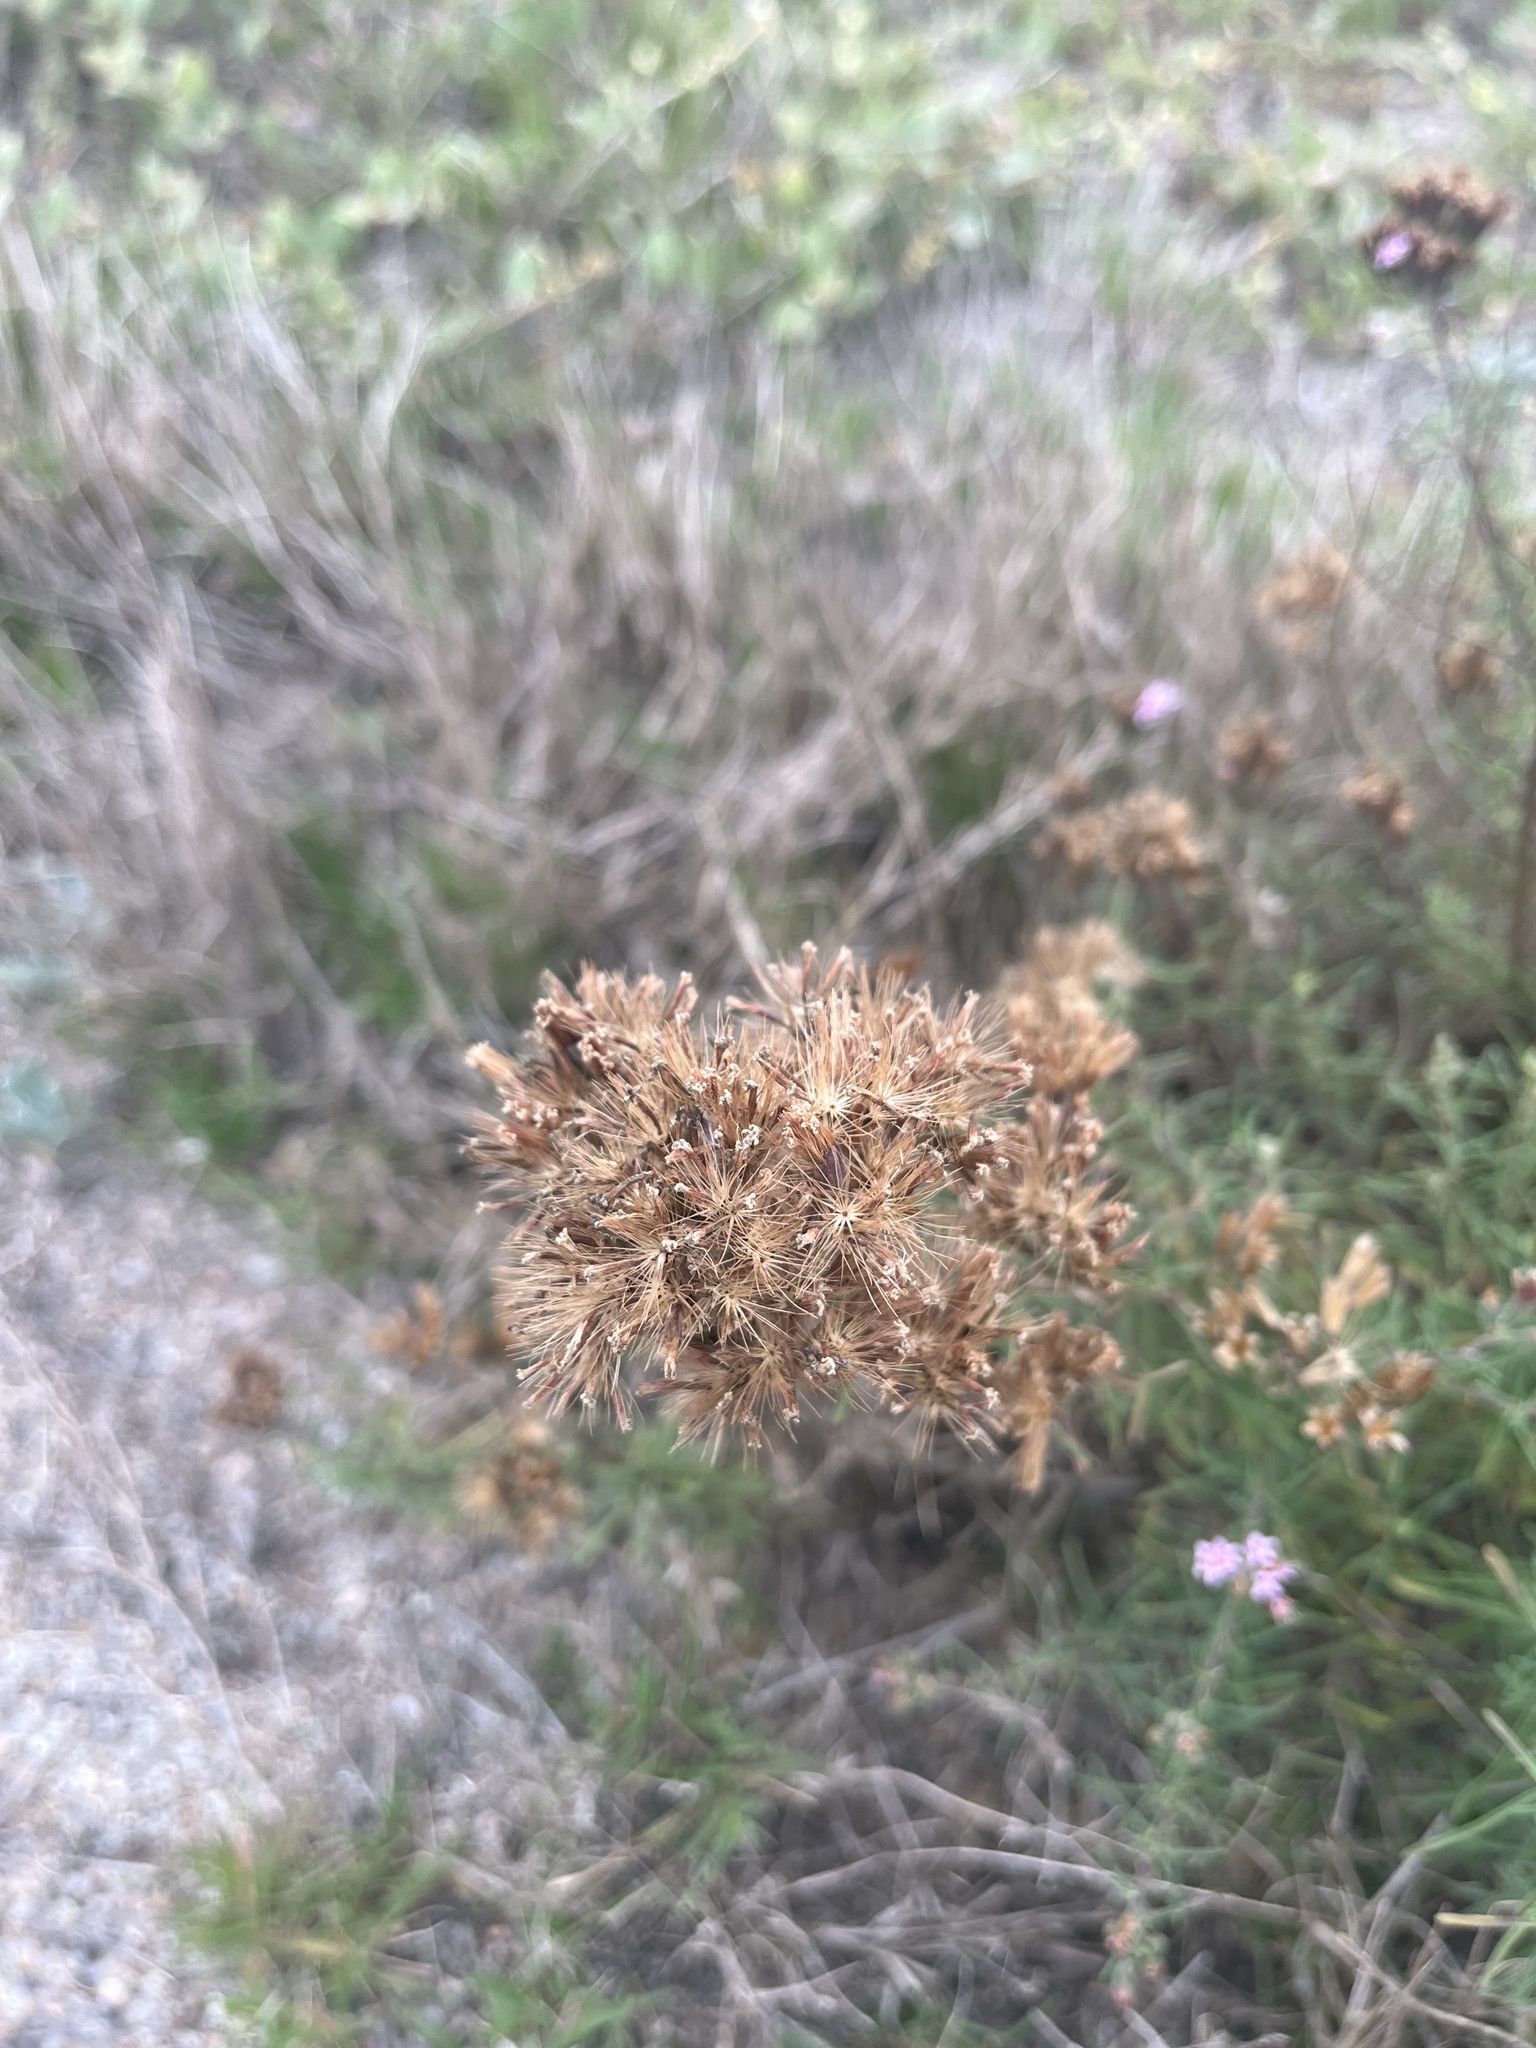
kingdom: Plantae
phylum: Tracheophyta
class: Magnoliopsida
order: Asterales
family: Asteraceae
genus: Stevia
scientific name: Stevia satureifolia
